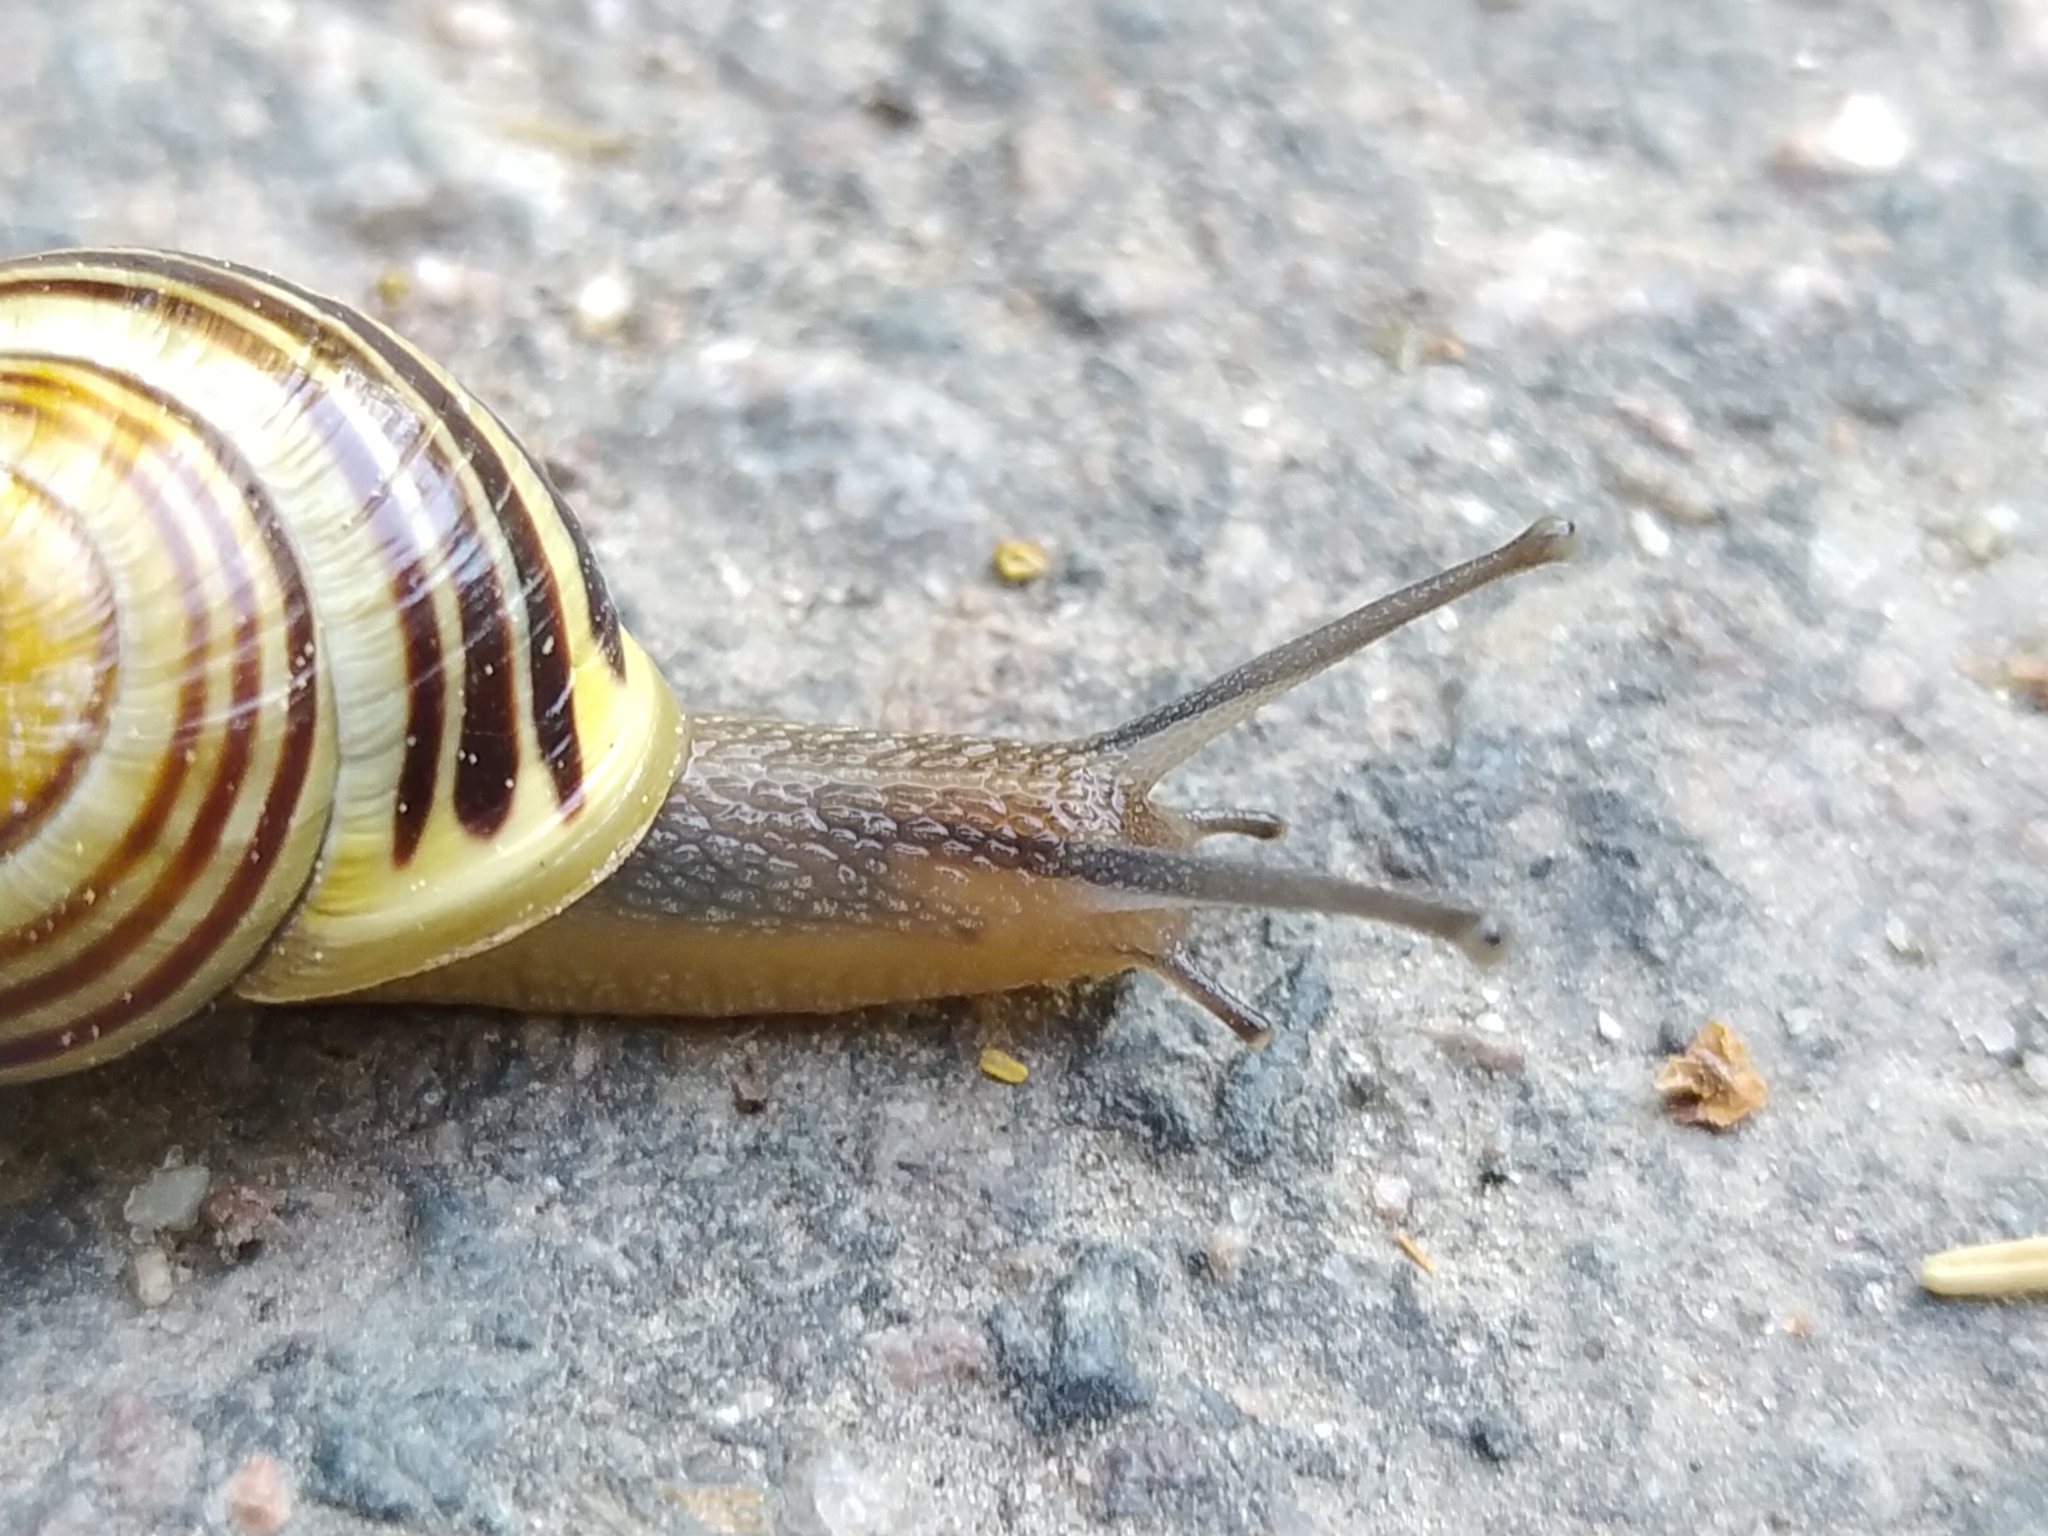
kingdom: Animalia
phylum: Mollusca
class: Gastropoda
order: Stylommatophora
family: Helicidae
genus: Cepaea
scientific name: Cepaea hortensis
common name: White-lip gardensnail
